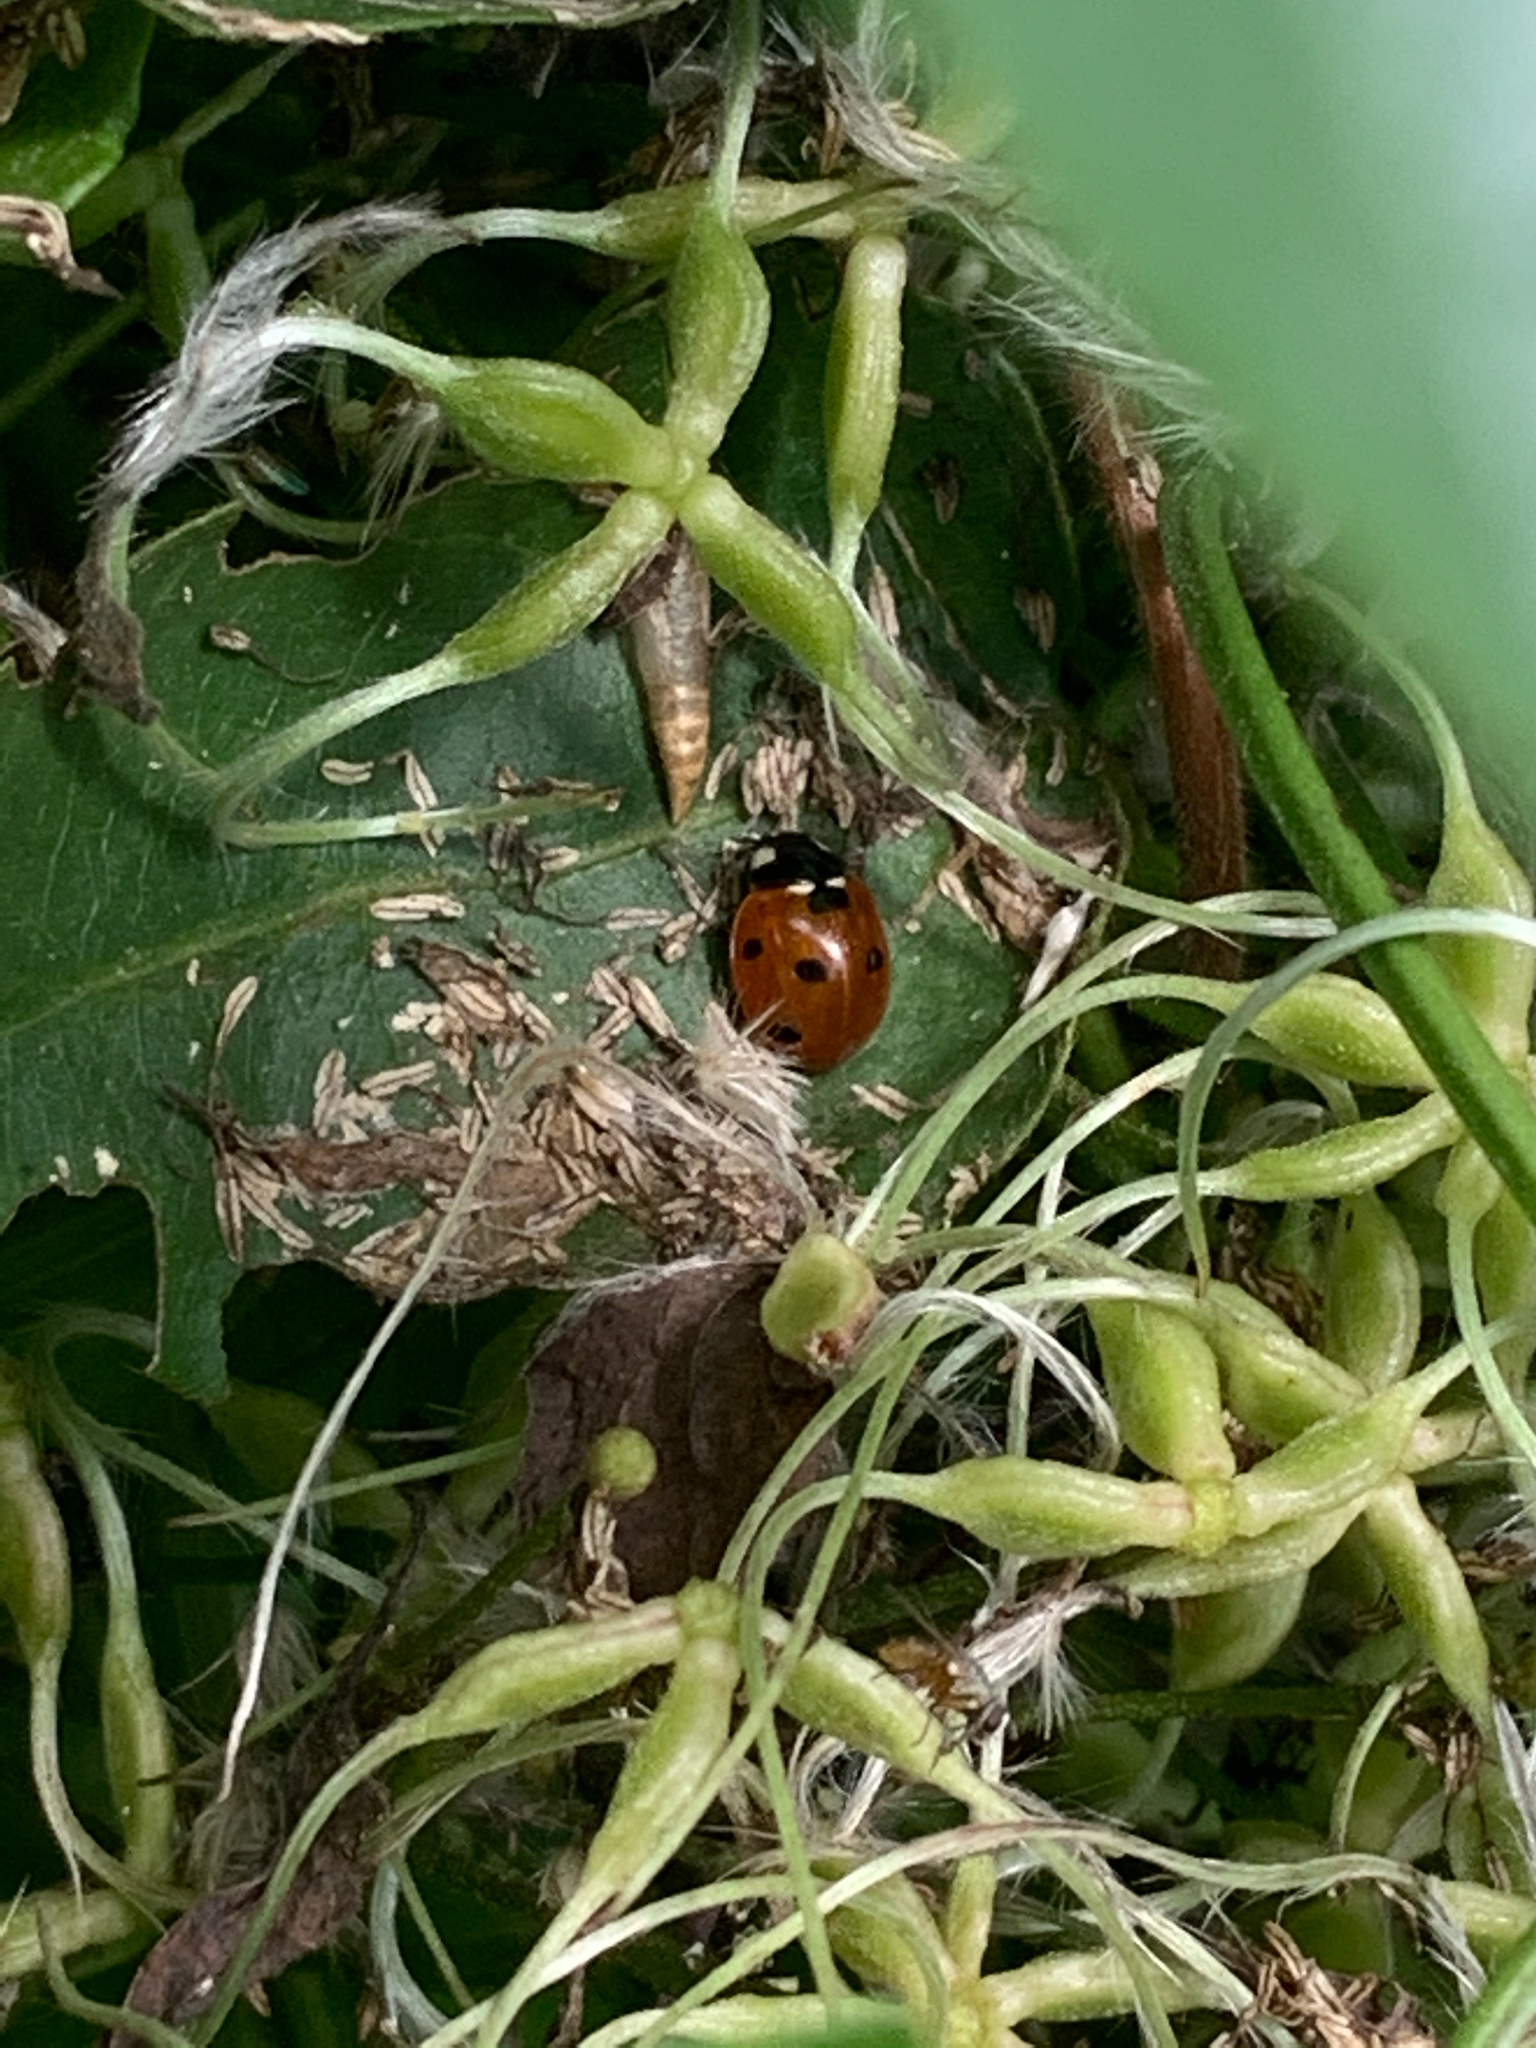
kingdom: Animalia
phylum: Arthropoda
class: Insecta
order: Coleoptera
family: Coccinellidae
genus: Coccinella
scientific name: Coccinella septempunctata
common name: Sevenspotted lady beetle
